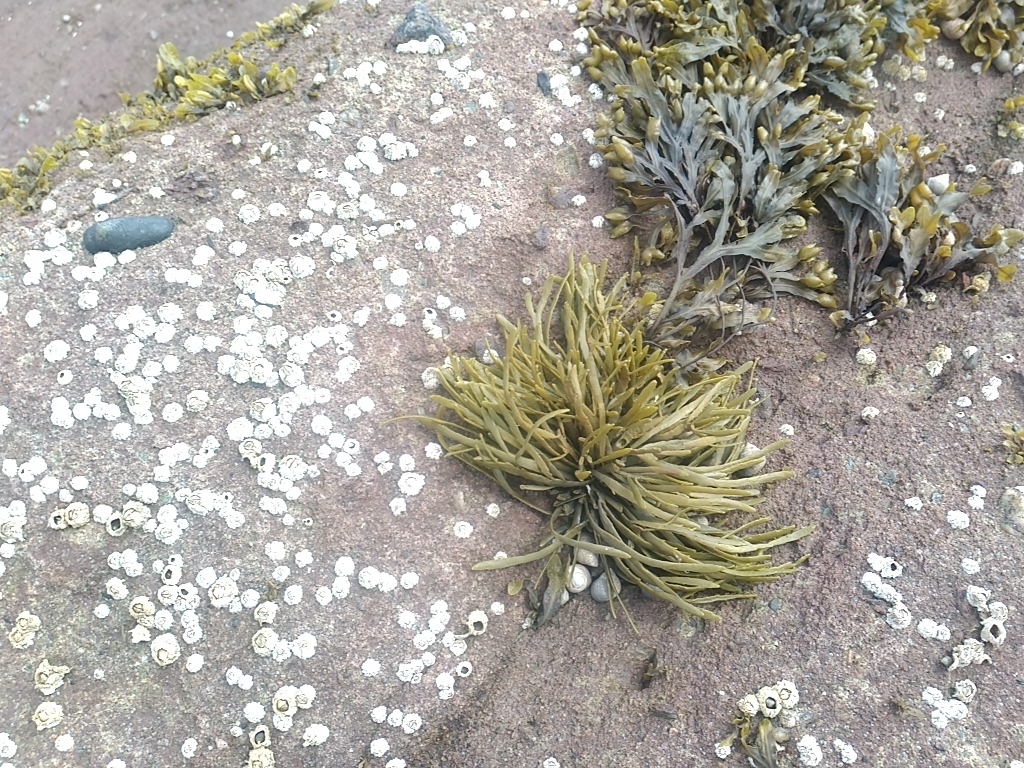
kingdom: Chromista
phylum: Ochrophyta
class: Phaeophyceae
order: Fucales
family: Fucaceae
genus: Ascophyllum
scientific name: Ascophyllum nodosum
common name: Knotted wrack
